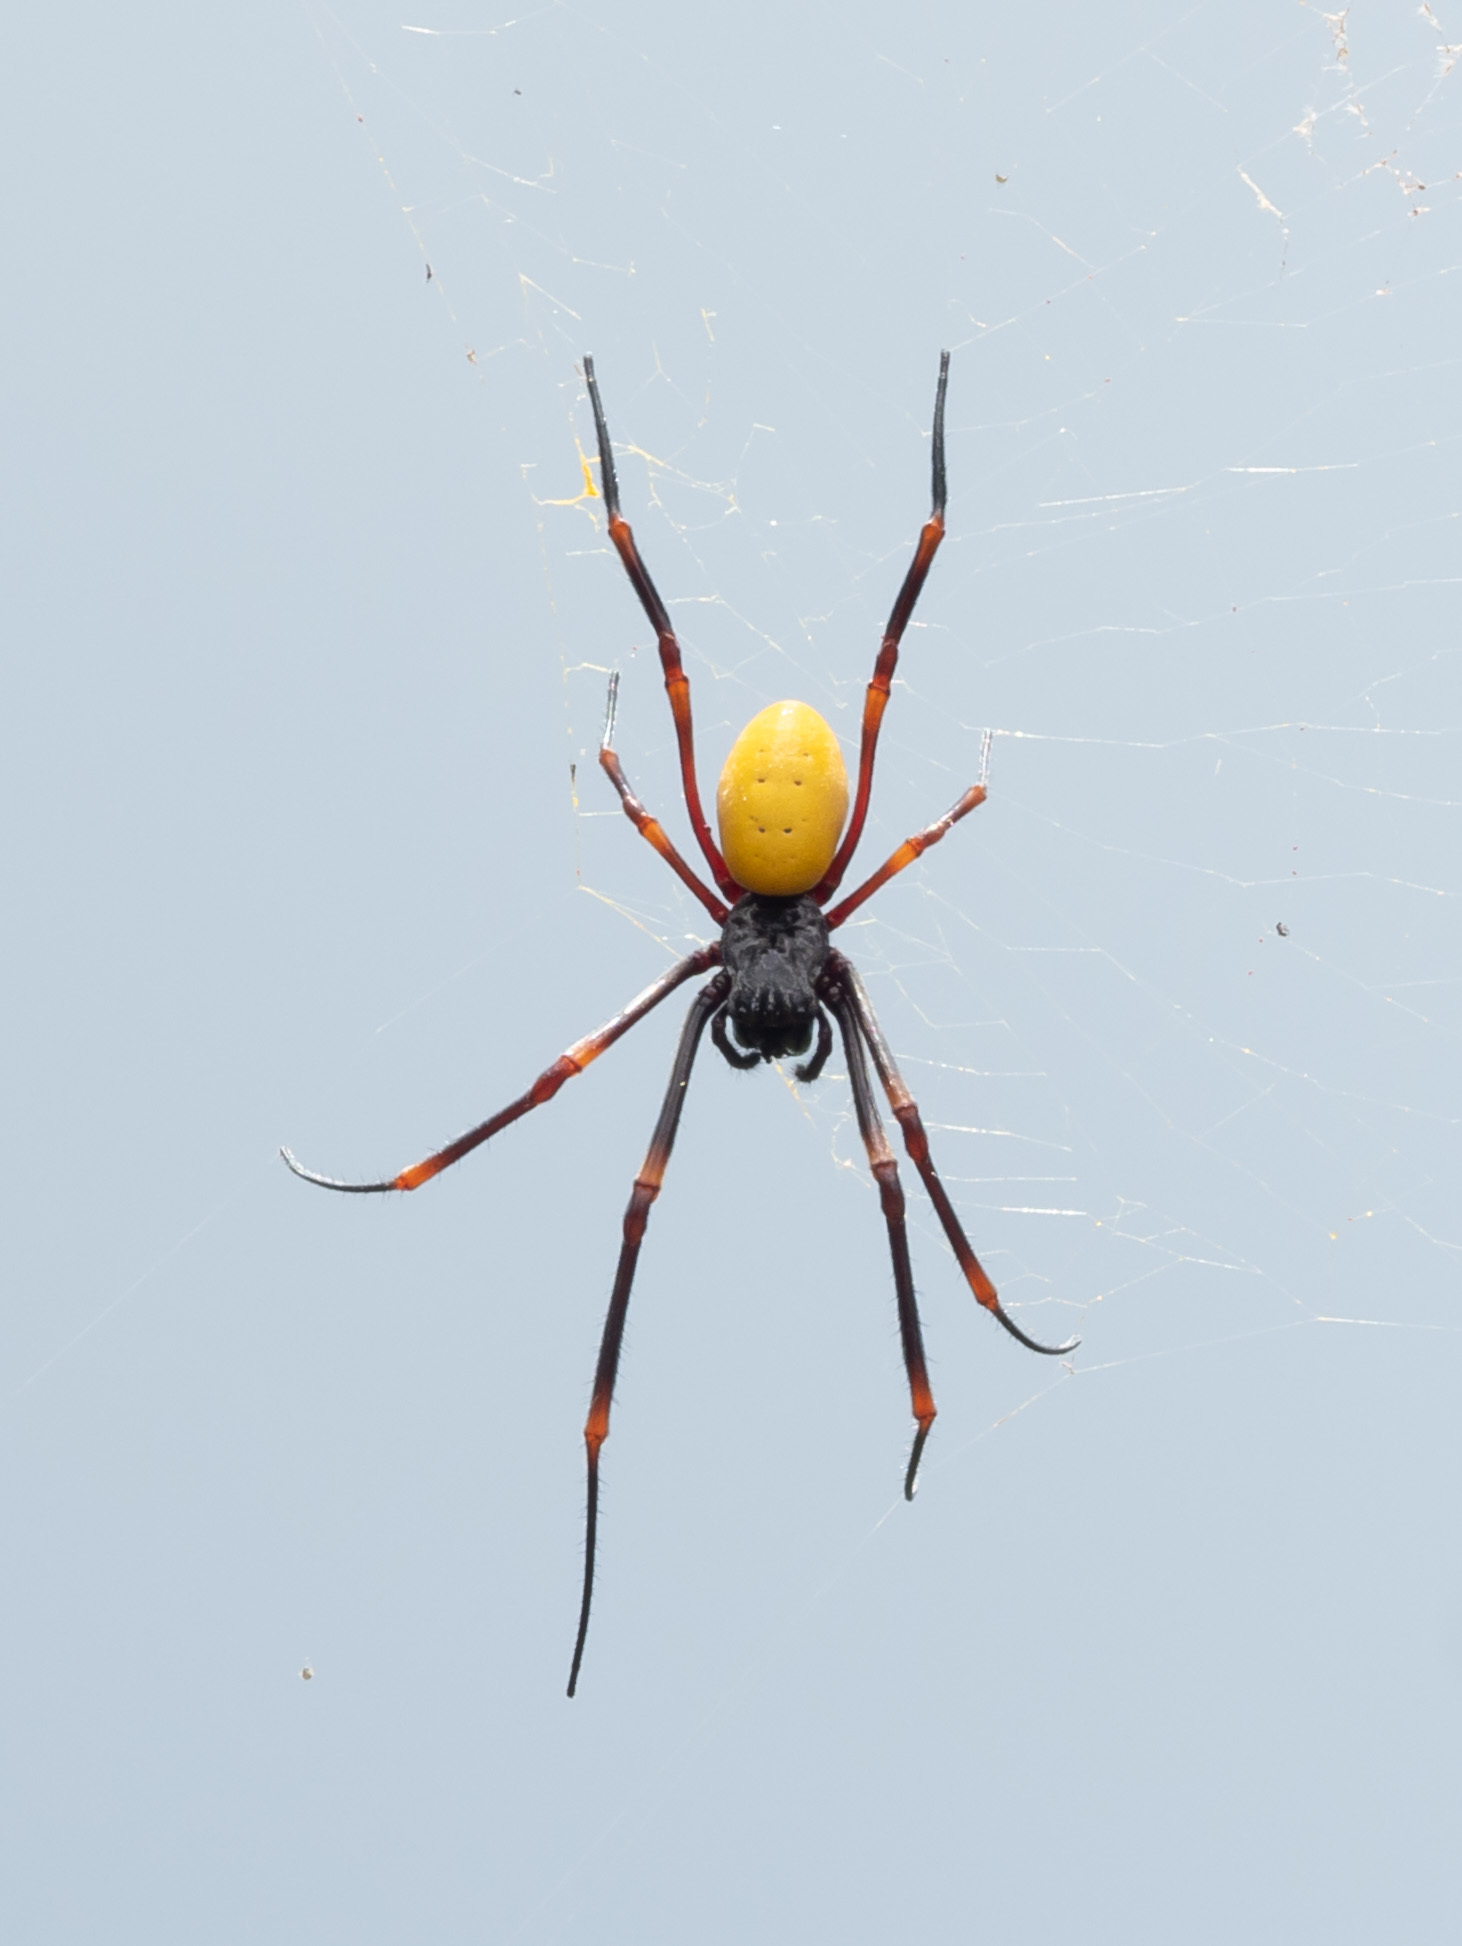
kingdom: Animalia
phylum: Arthropoda
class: Arachnida
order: Araneae
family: Araneidae
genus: Nephila
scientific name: Nephila tetragnathoides
